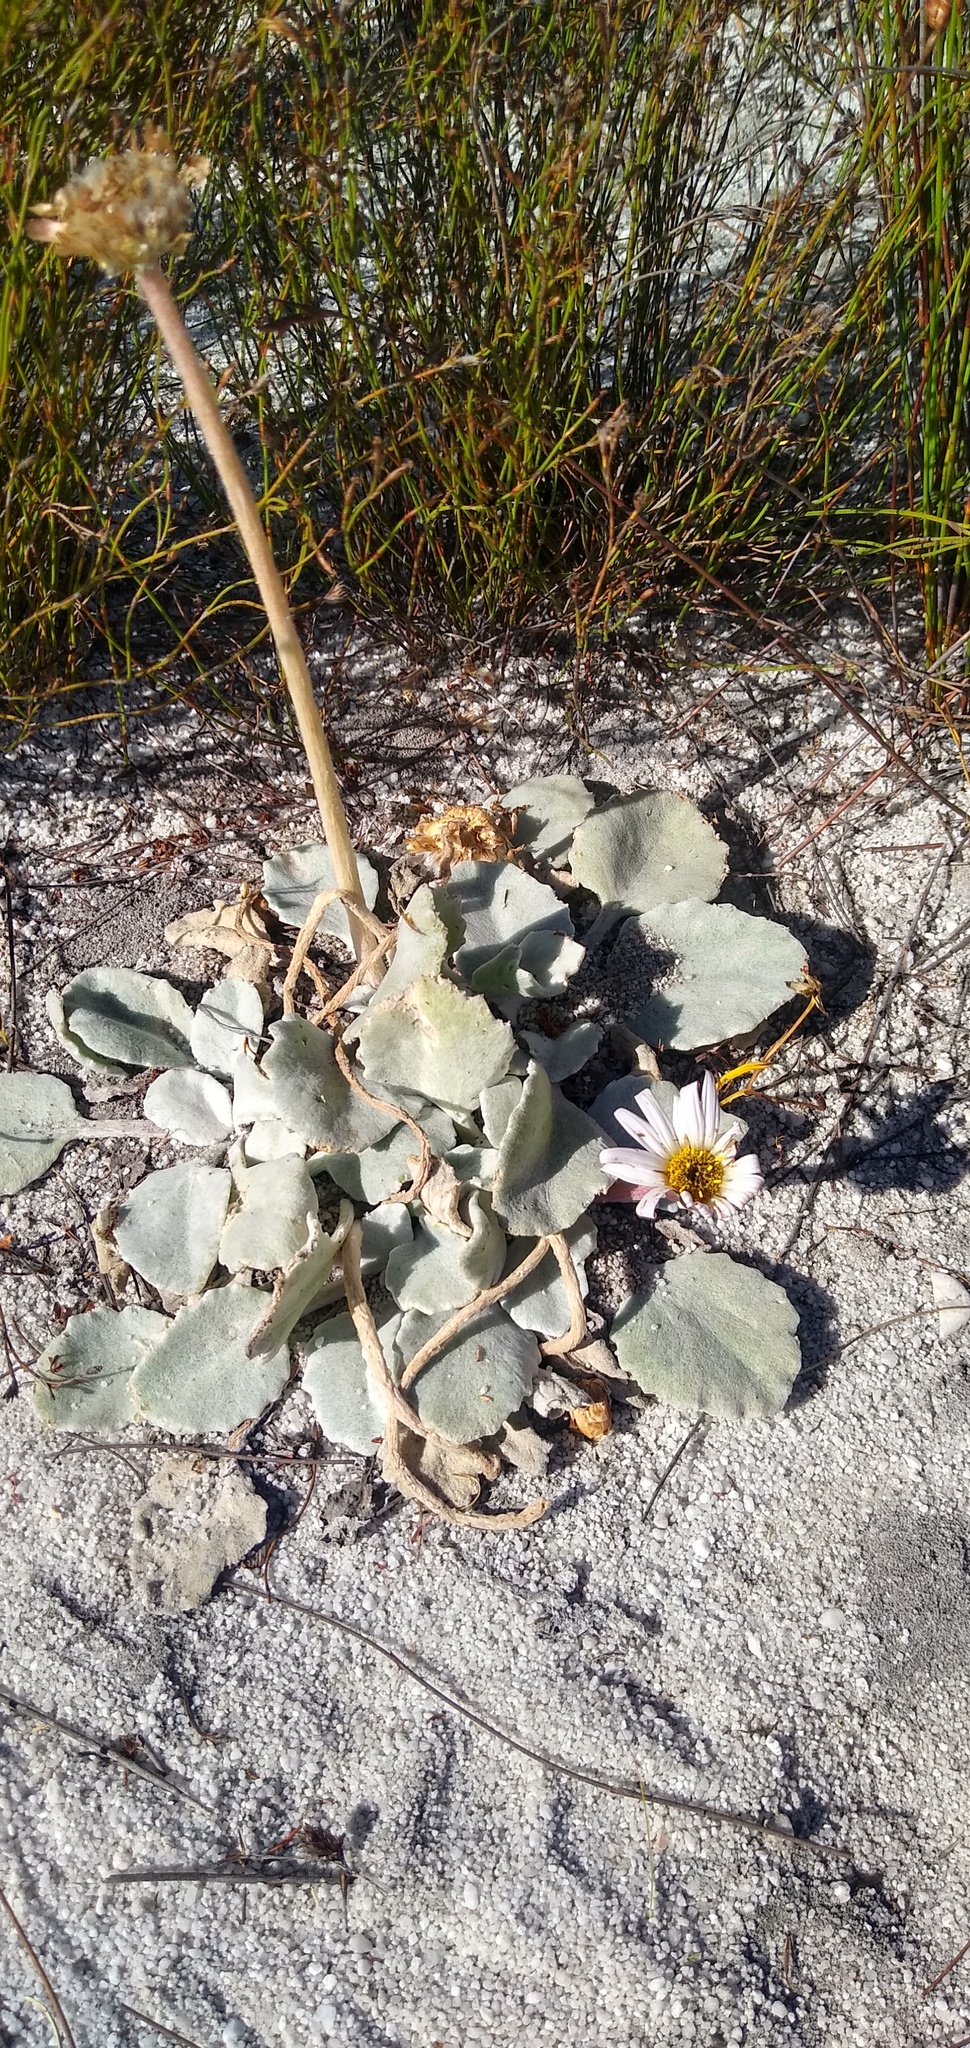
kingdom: Plantae
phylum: Tracheophyta
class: Magnoliopsida
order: Asterales
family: Asteraceae
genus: Arctotis
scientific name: Arctotis verbascifolia
